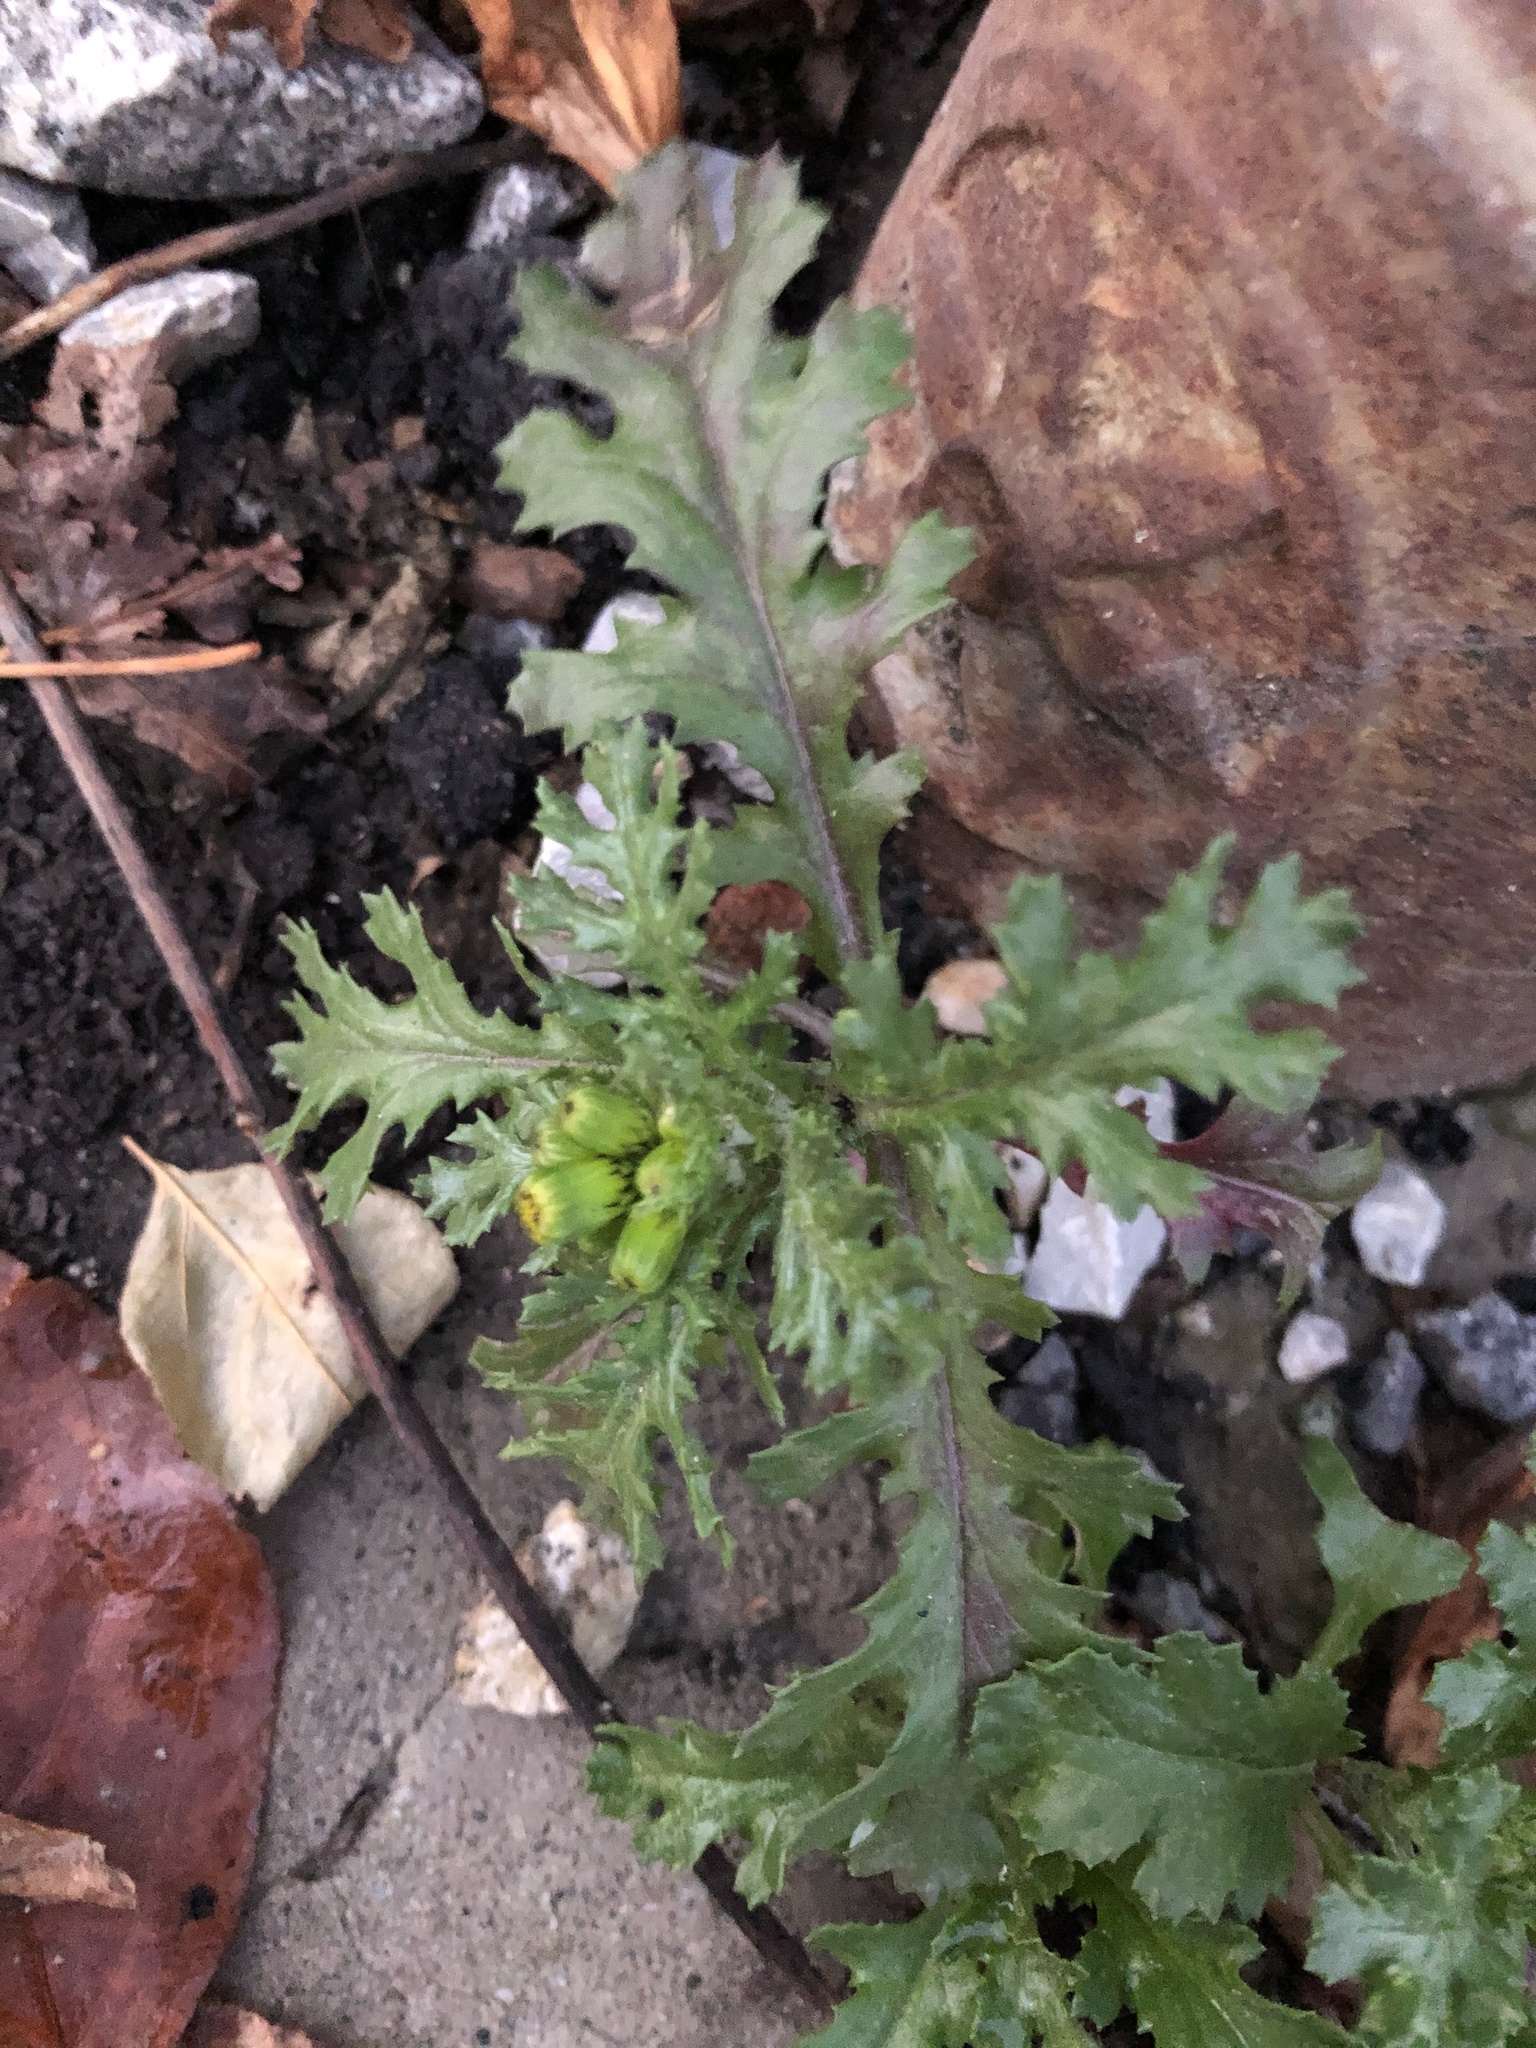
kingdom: Plantae
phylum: Tracheophyta
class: Magnoliopsida
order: Asterales
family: Asteraceae
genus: Senecio
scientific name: Senecio vulgaris
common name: Old-man-in-the-spring
